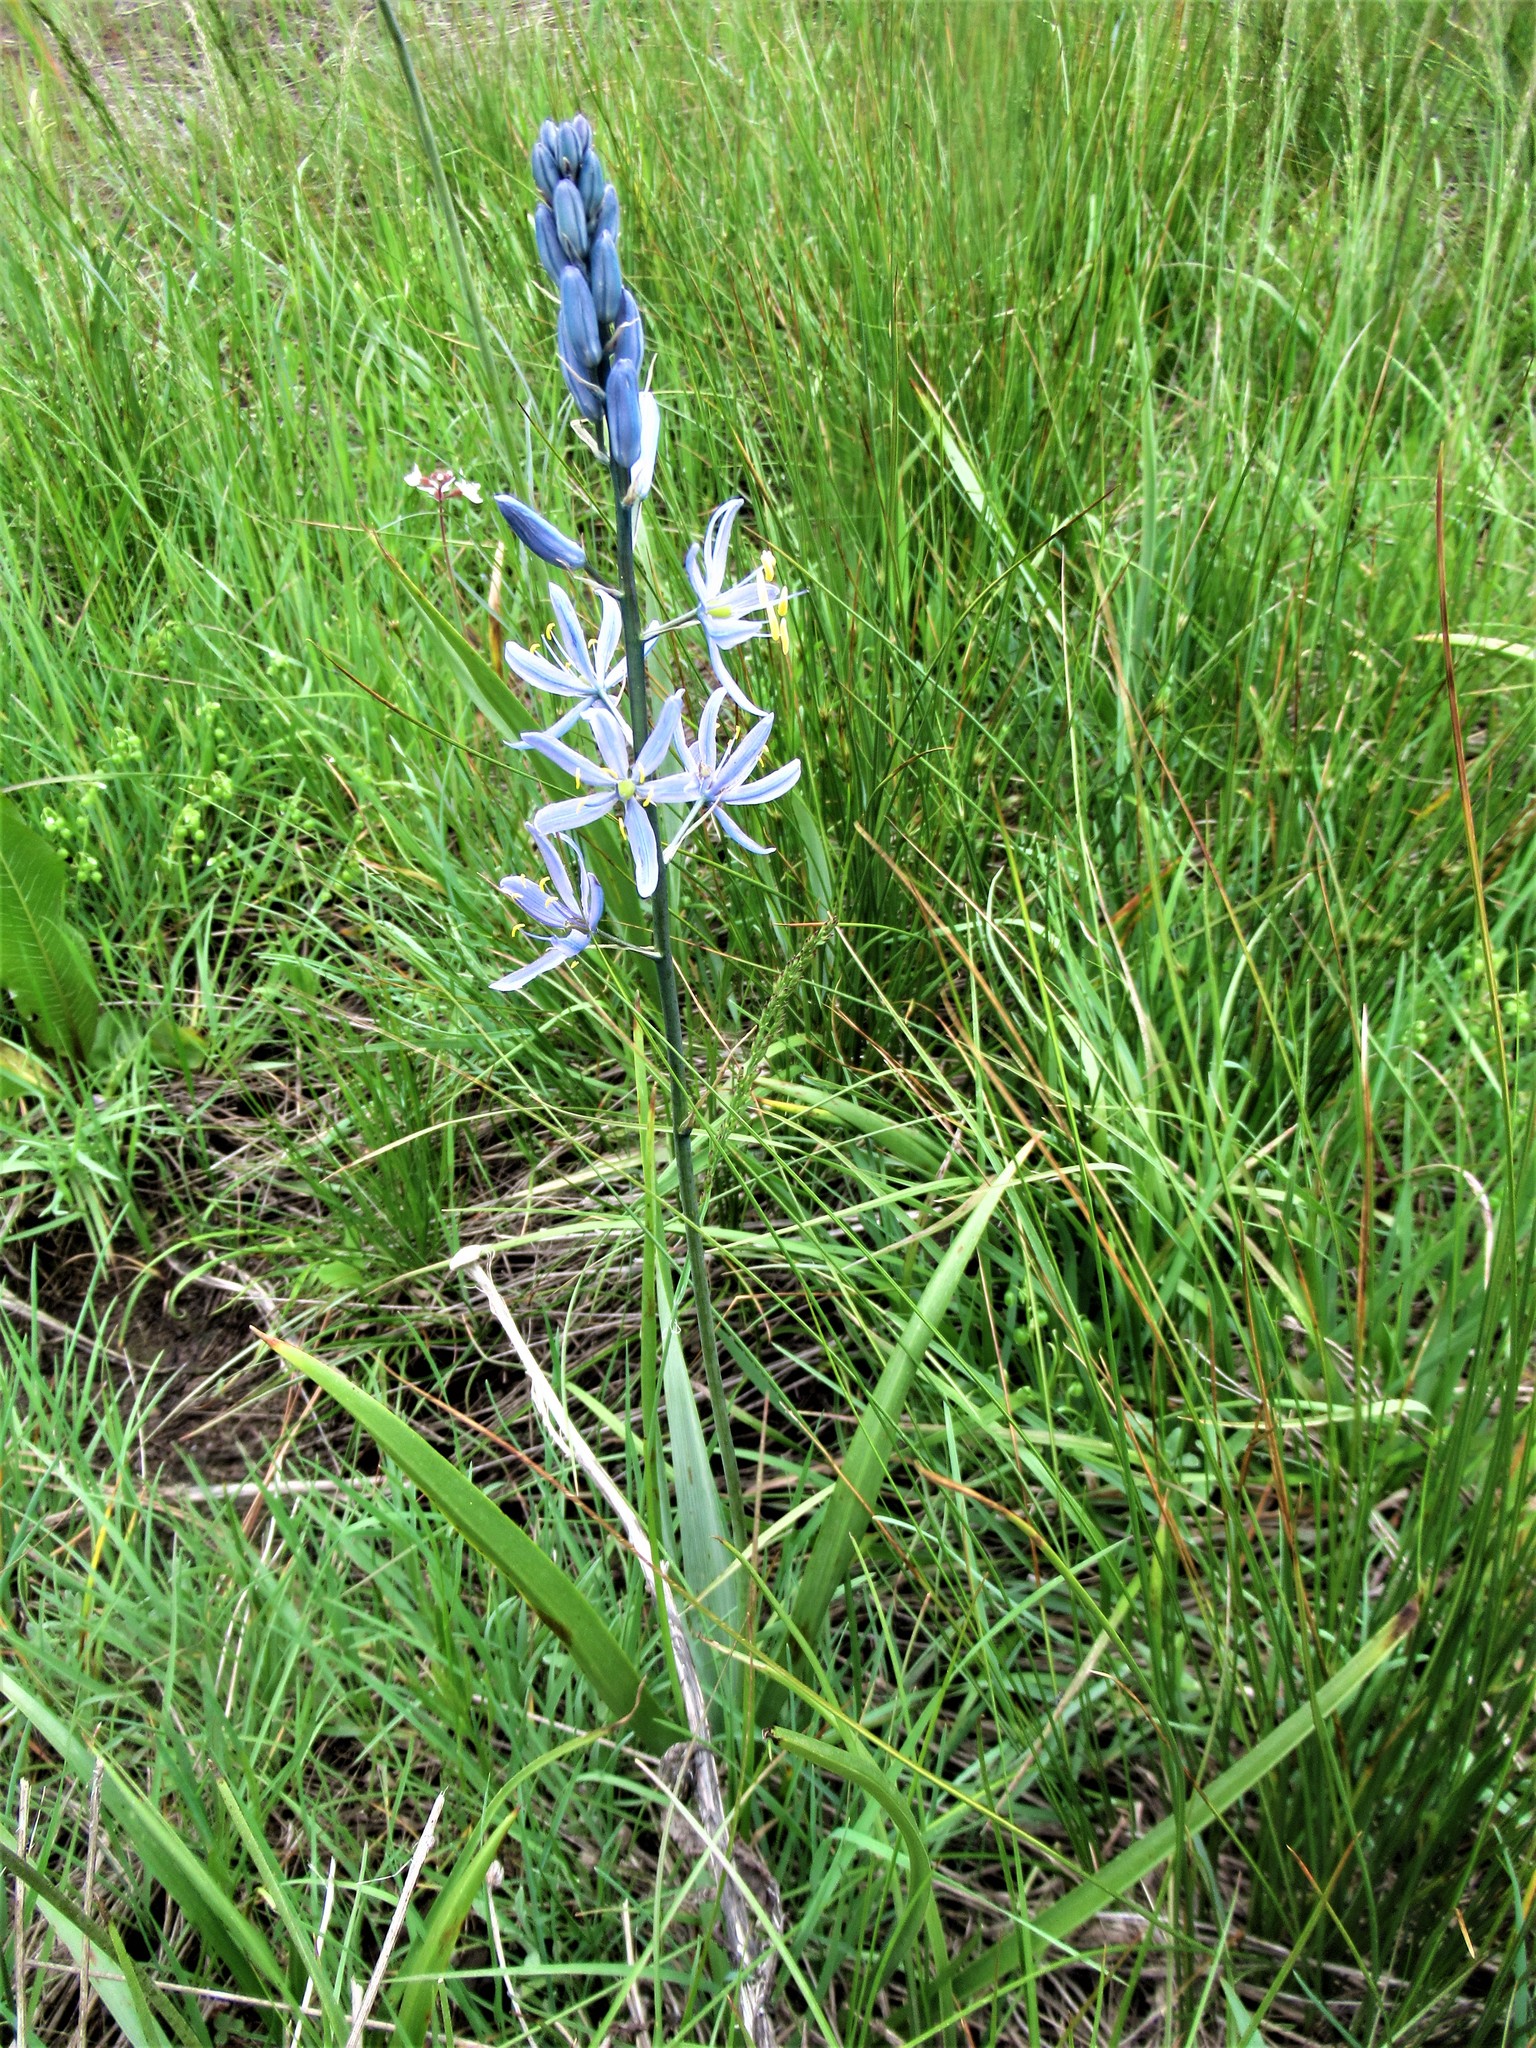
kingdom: Plantae
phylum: Tracheophyta
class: Liliopsida
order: Asparagales
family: Asparagaceae
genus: Camassia
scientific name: Camassia quamash
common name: Common camas
